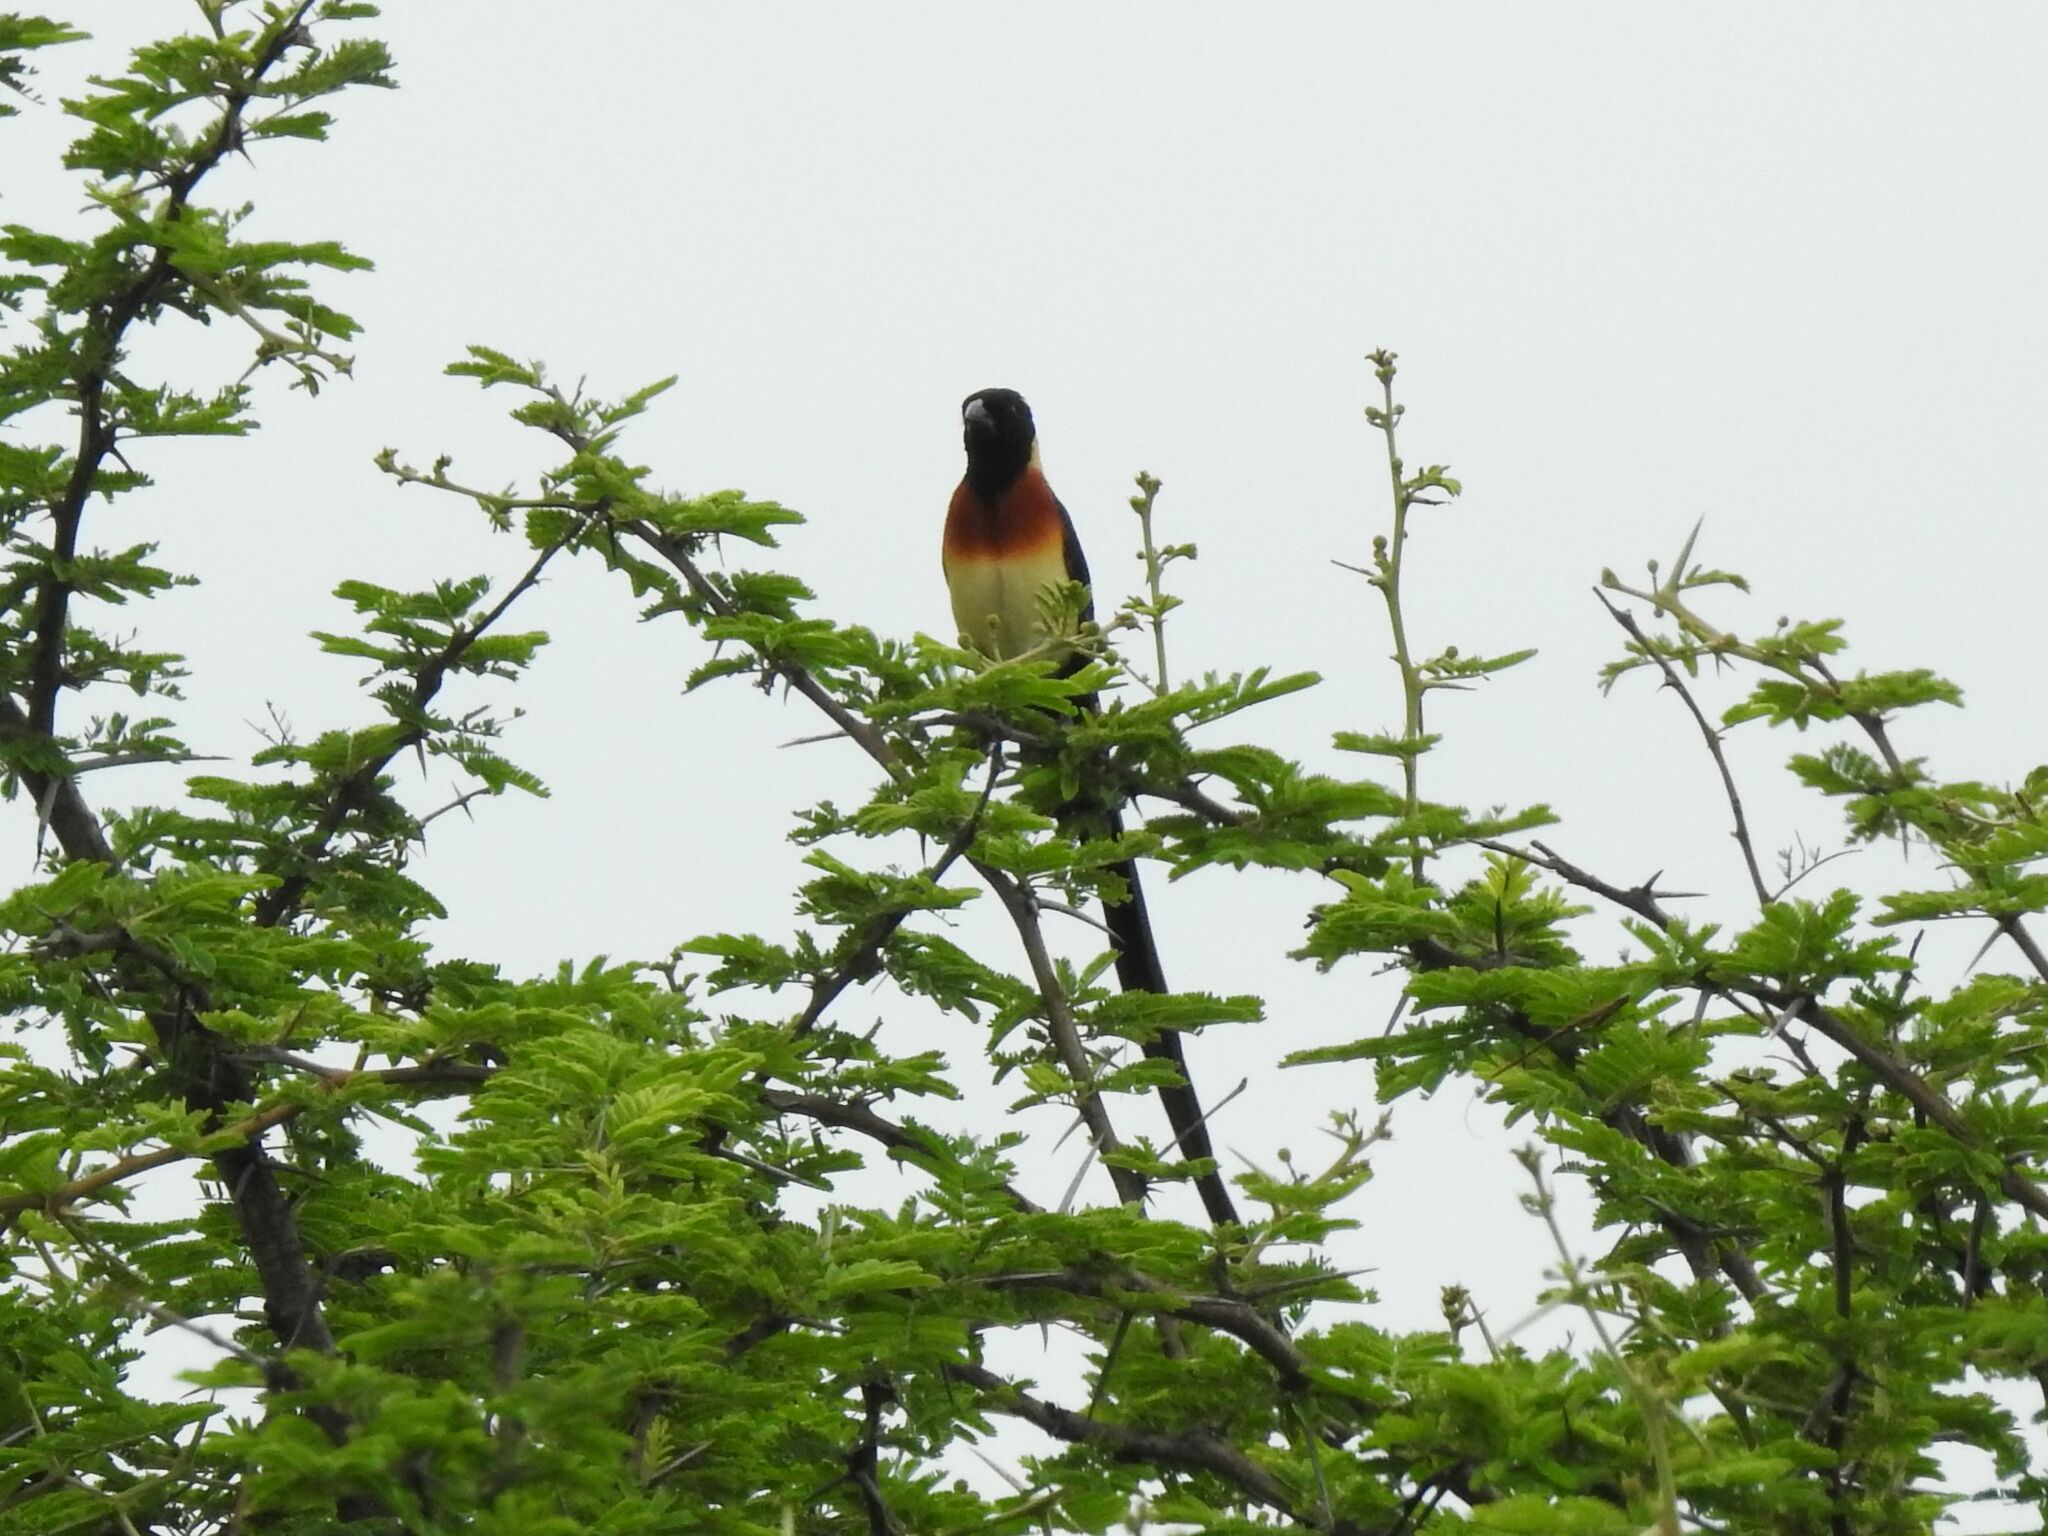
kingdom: Animalia
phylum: Chordata
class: Aves
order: Passeriformes
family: Viduidae
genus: Vidua
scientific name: Vidua paradisaea
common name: Long-tailed paradise whydah
